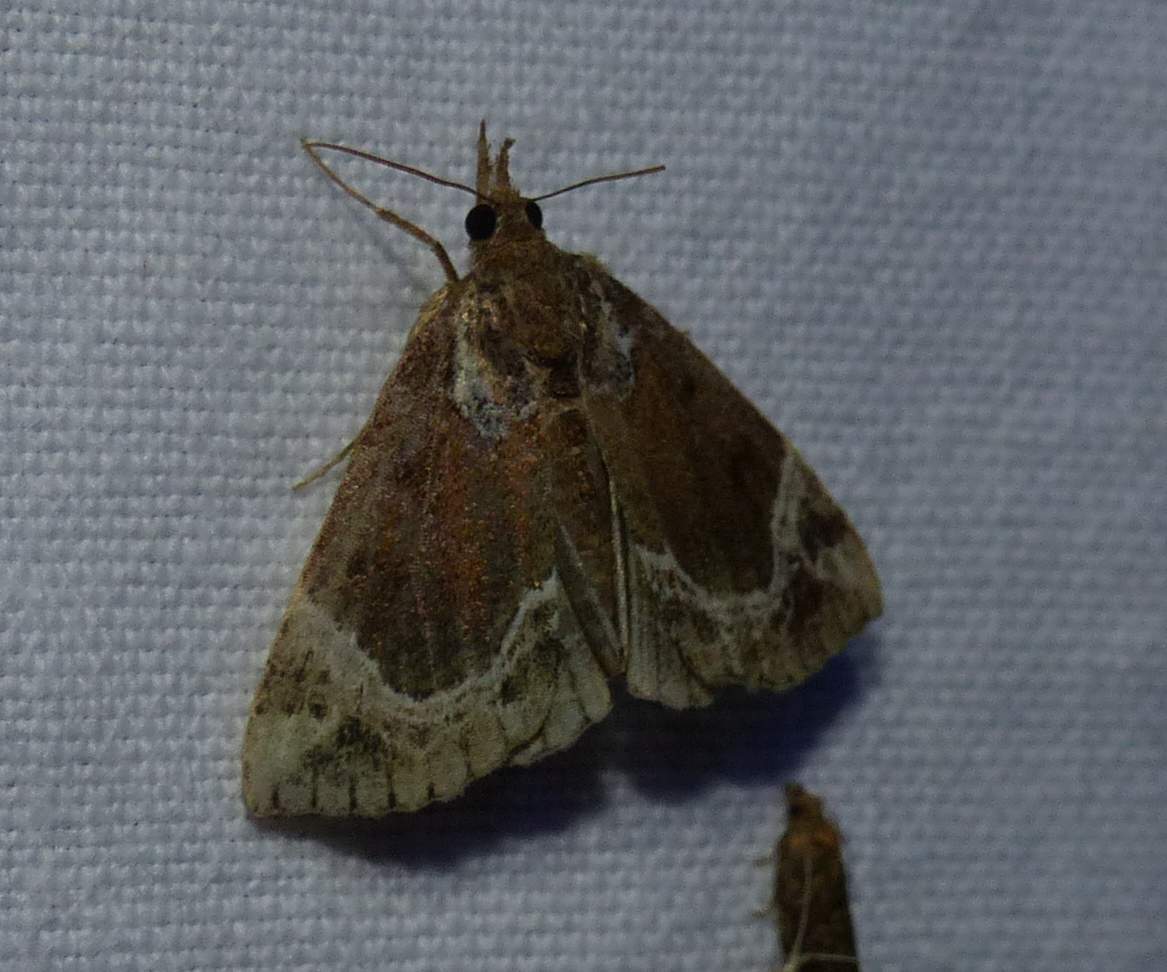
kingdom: Animalia
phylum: Arthropoda
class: Insecta
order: Lepidoptera
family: Erebidae
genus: Hypena
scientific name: Hypena abalienalis
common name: White-lined snout
